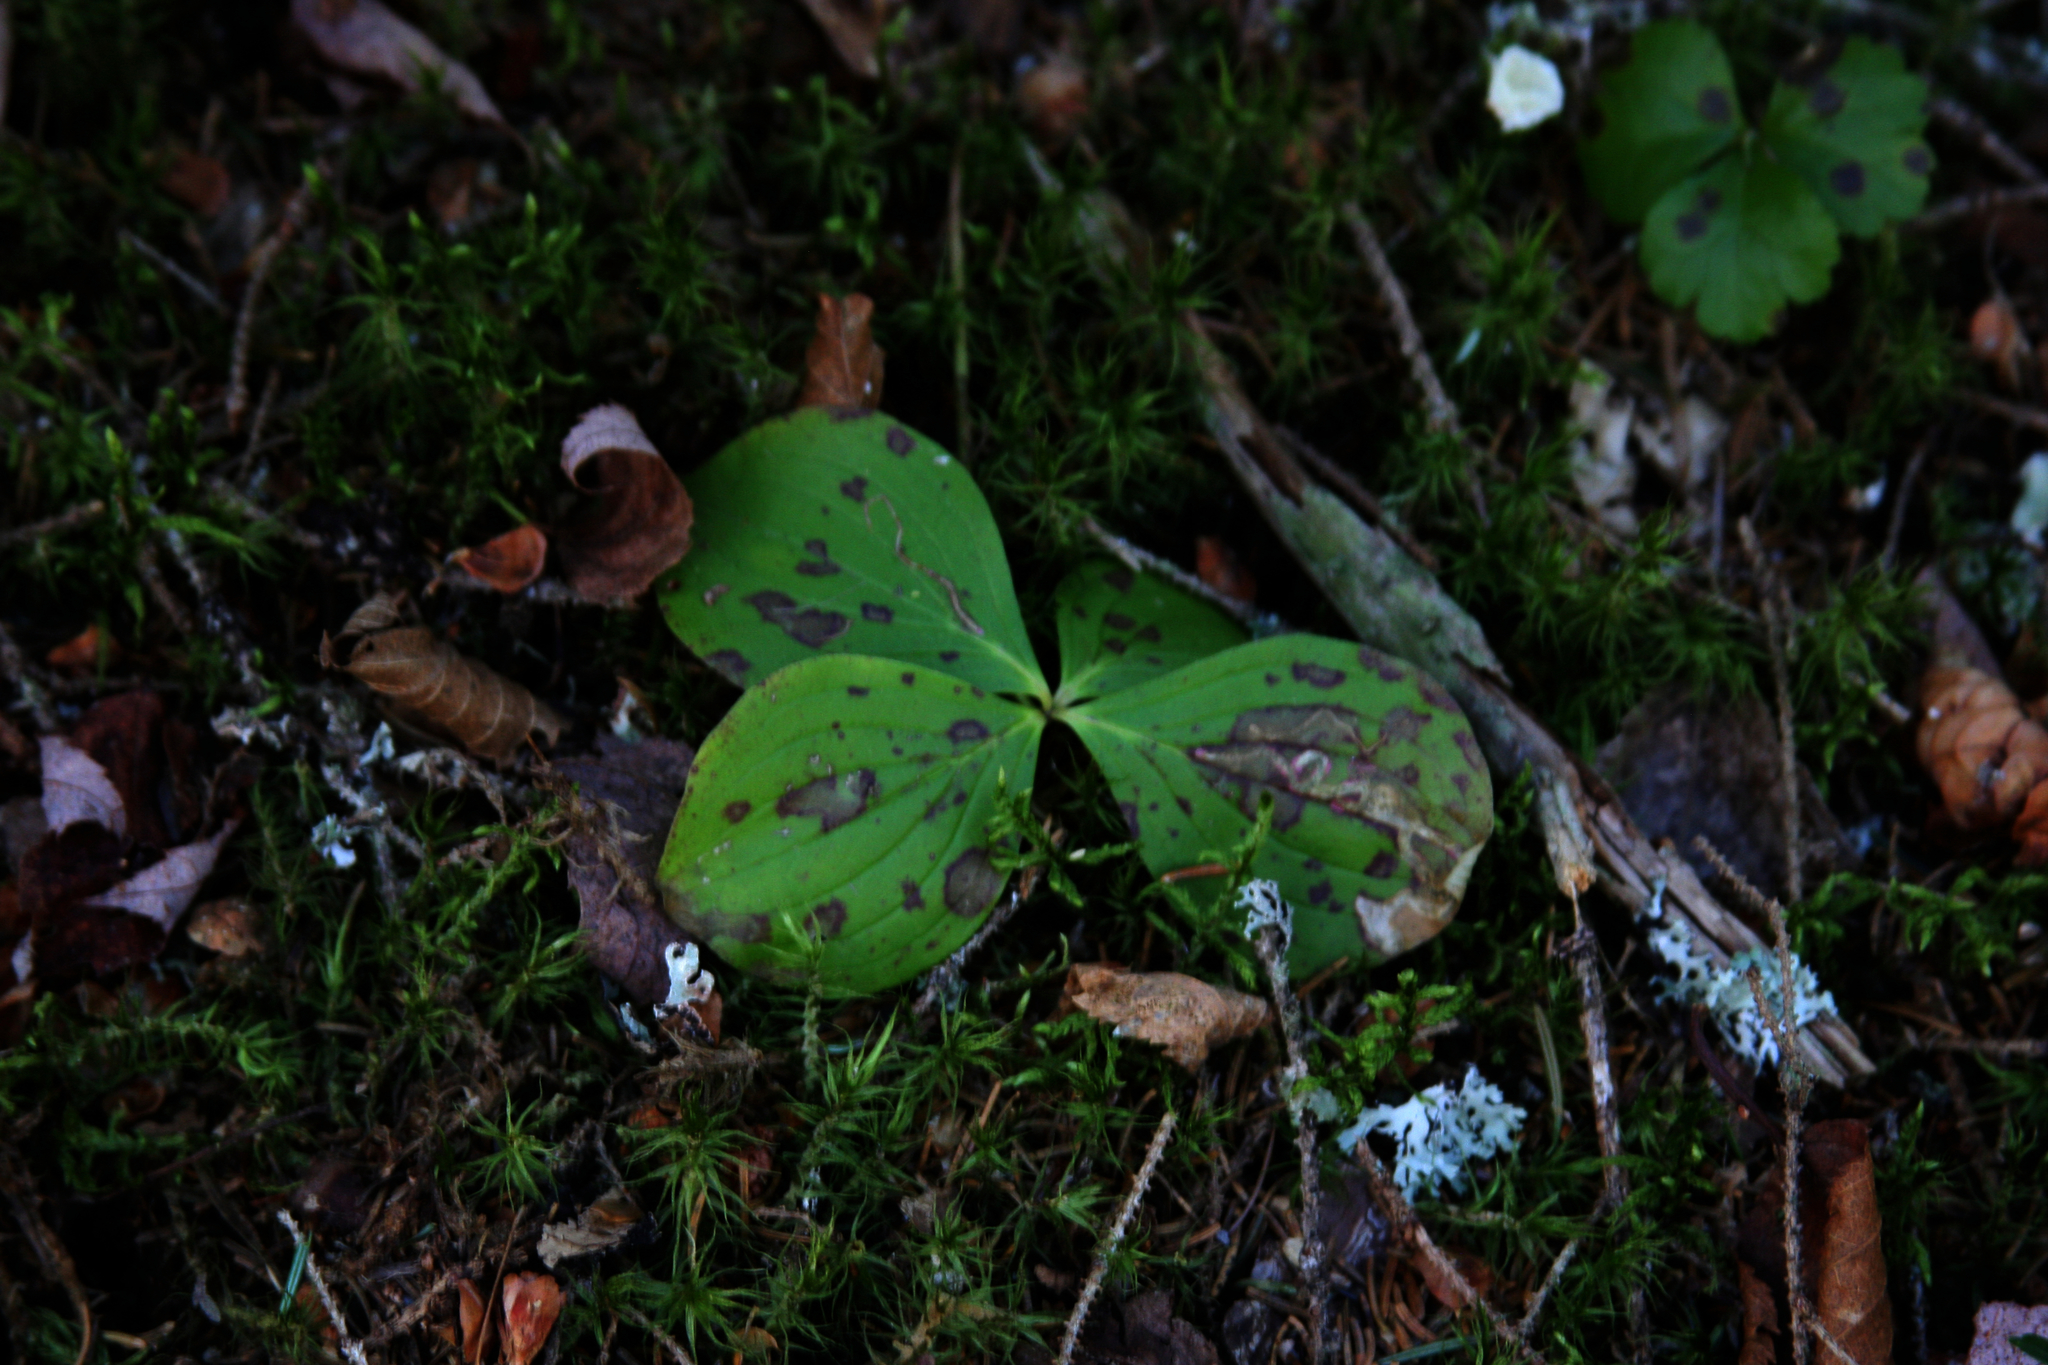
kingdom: Plantae
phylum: Tracheophyta
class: Magnoliopsida
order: Cornales
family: Cornaceae
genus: Cornus
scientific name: Cornus canadensis
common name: Creeping dogwood
